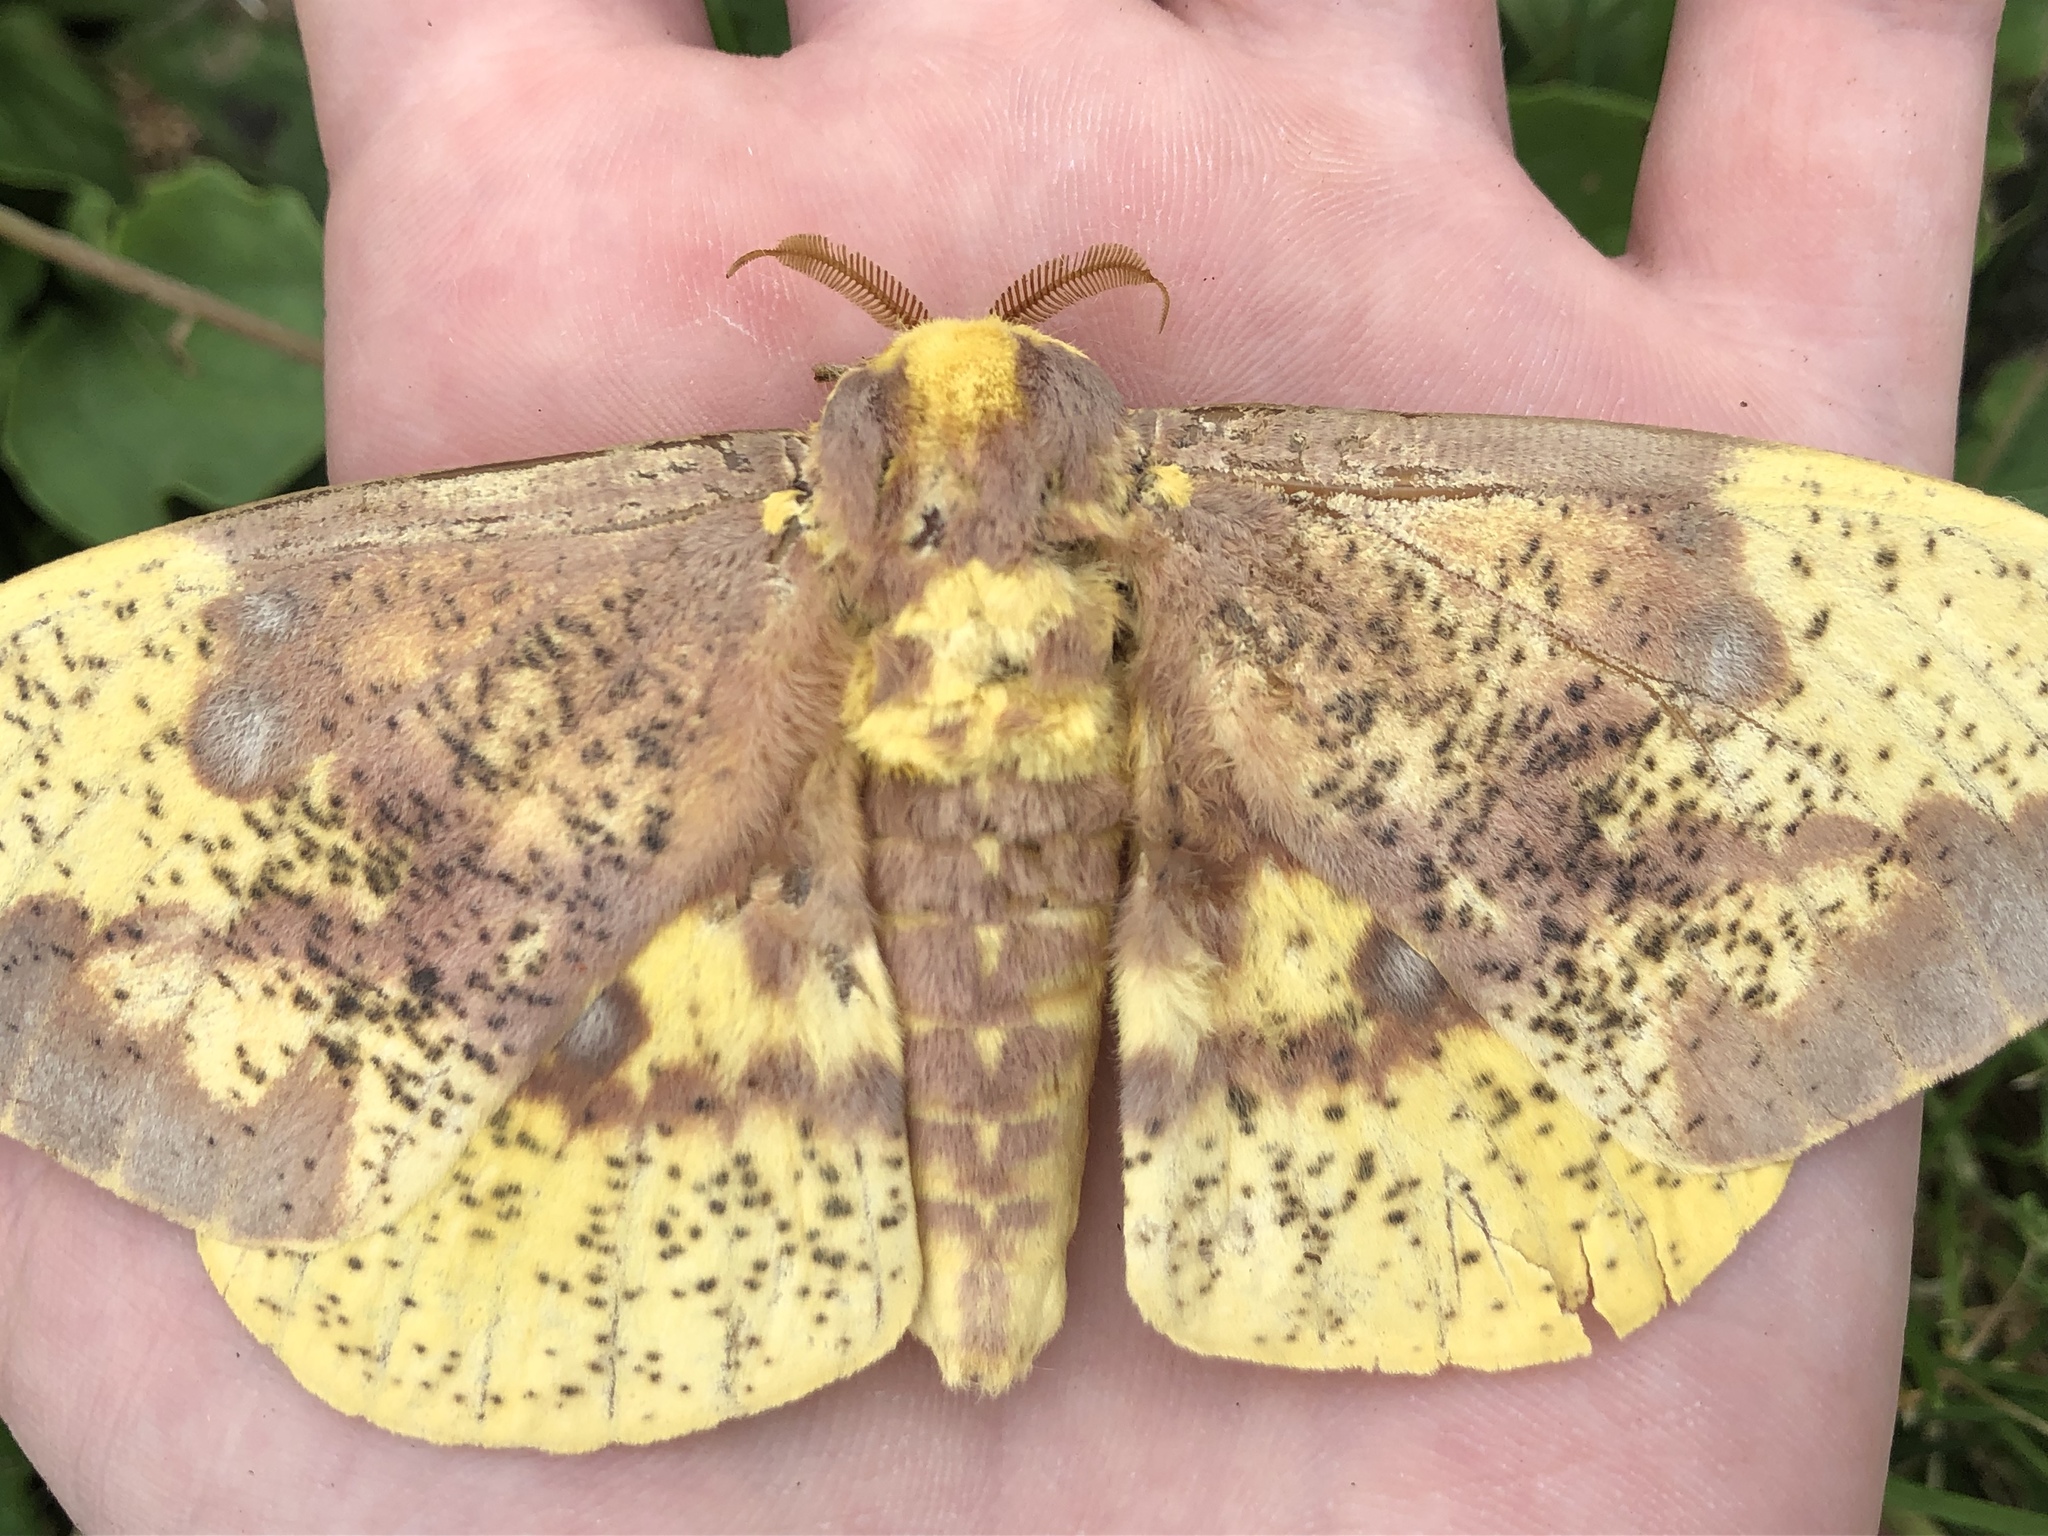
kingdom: Animalia
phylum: Arthropoda
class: Insecta
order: Lepidoptera
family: Saturniidae
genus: Eacles
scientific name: Eacles imperialis
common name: Imperial moth
